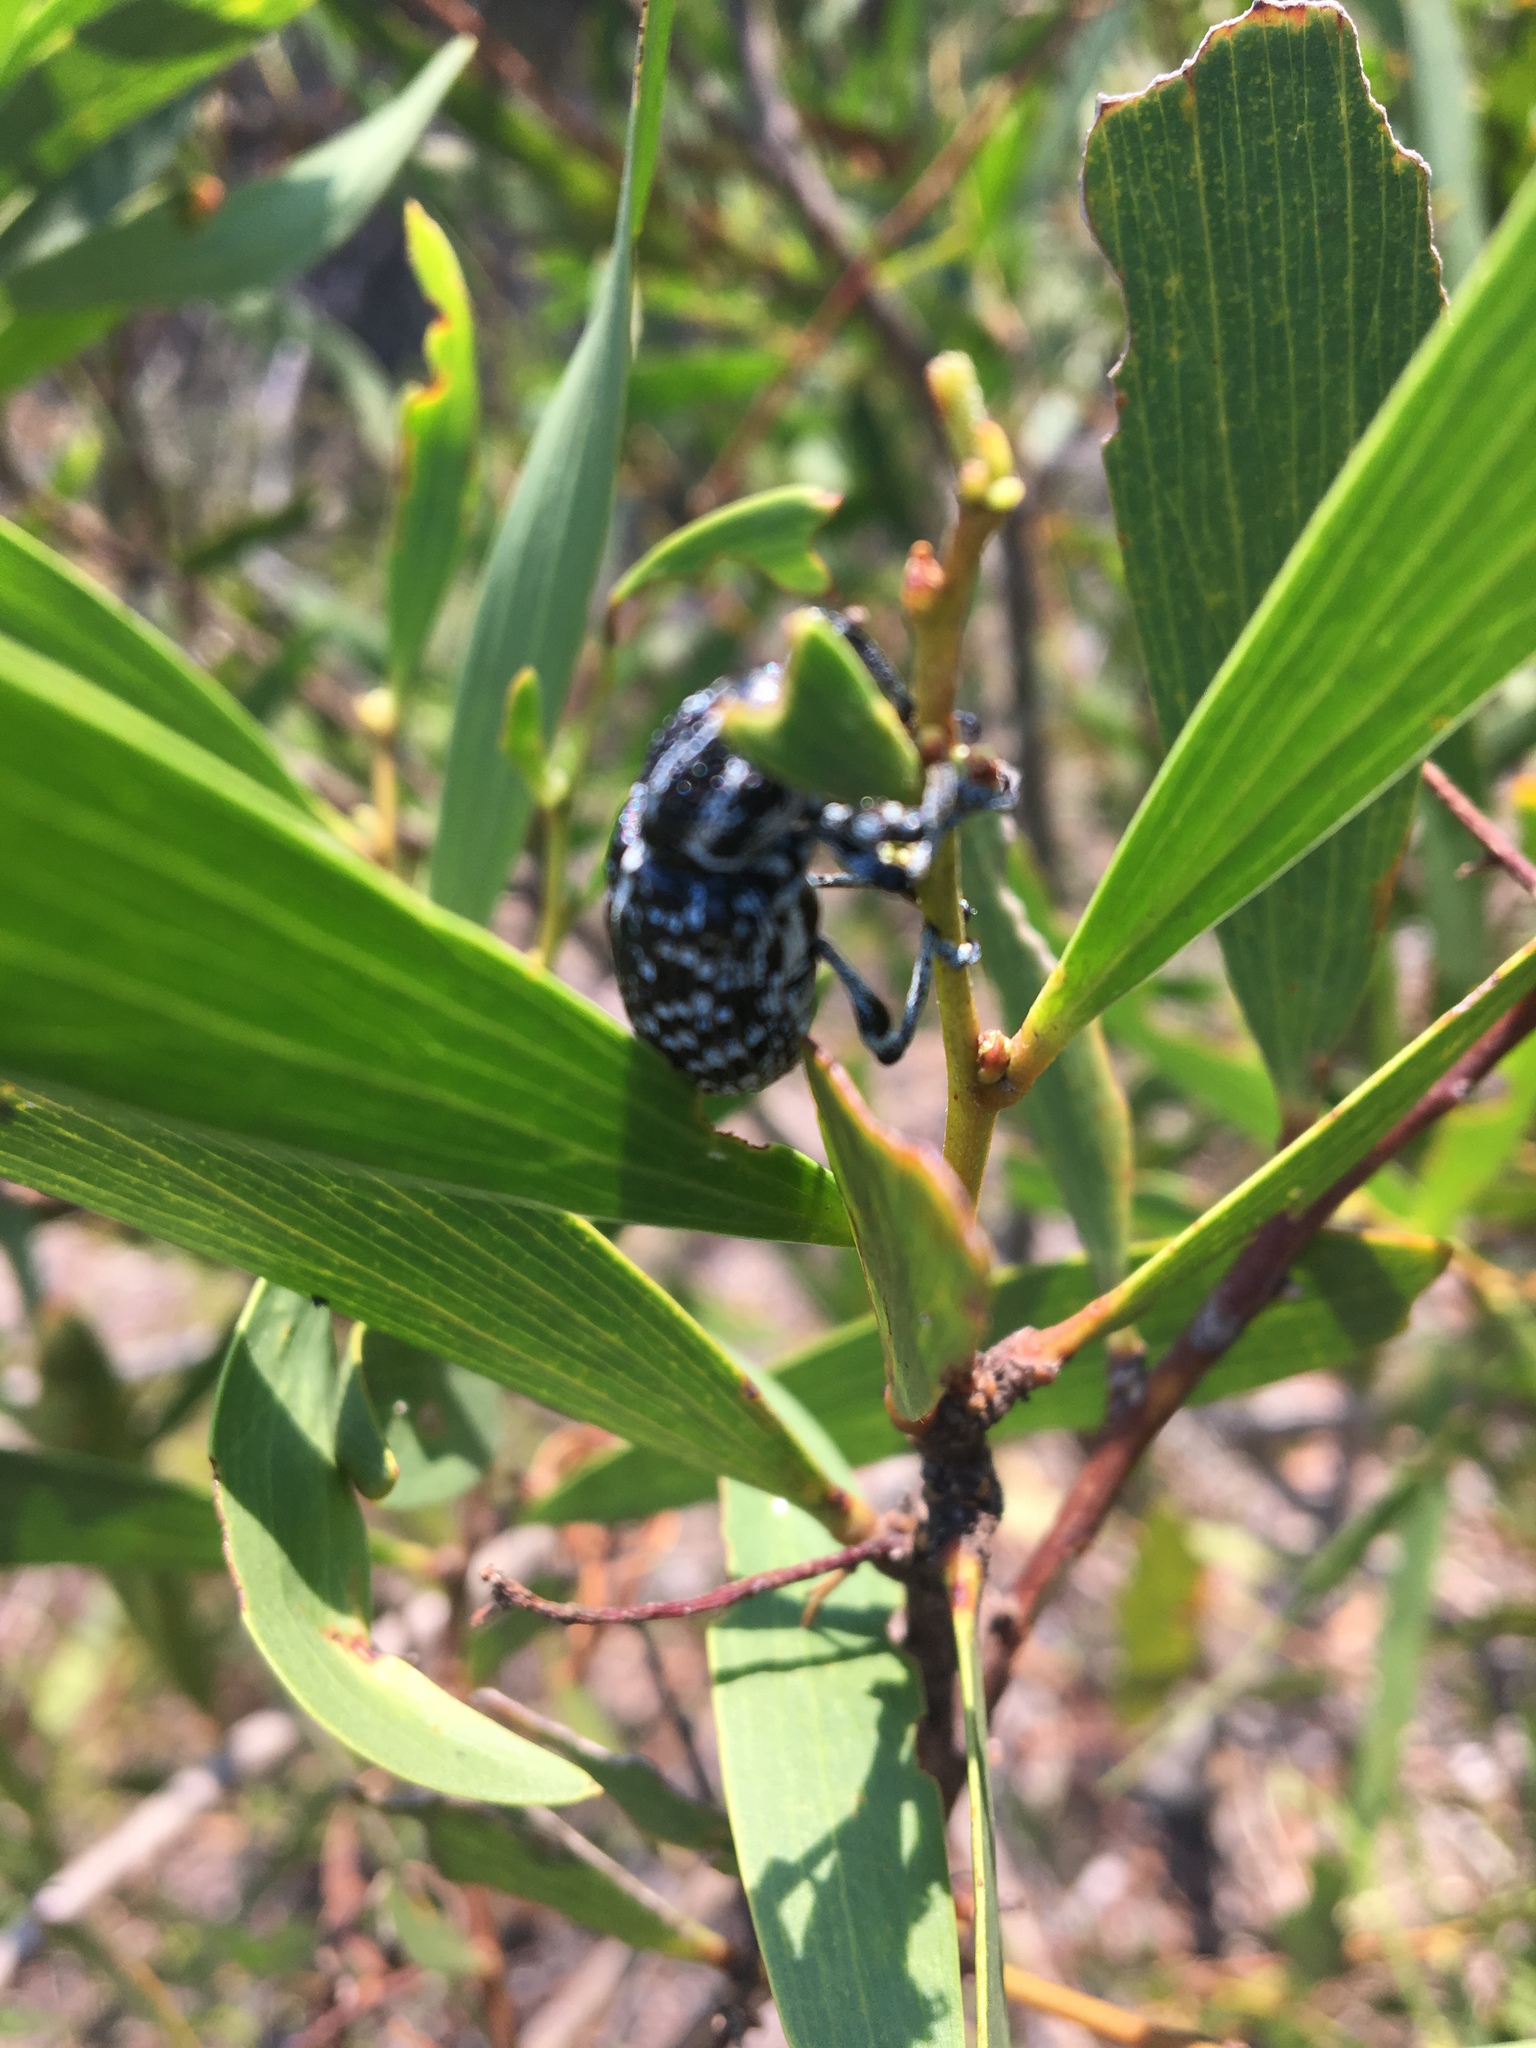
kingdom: Animalia
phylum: Arthropoda
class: Insecta
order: Coleoptera
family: Curculionidae
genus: Chrysolopus
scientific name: Chrysolopus spectabilis
